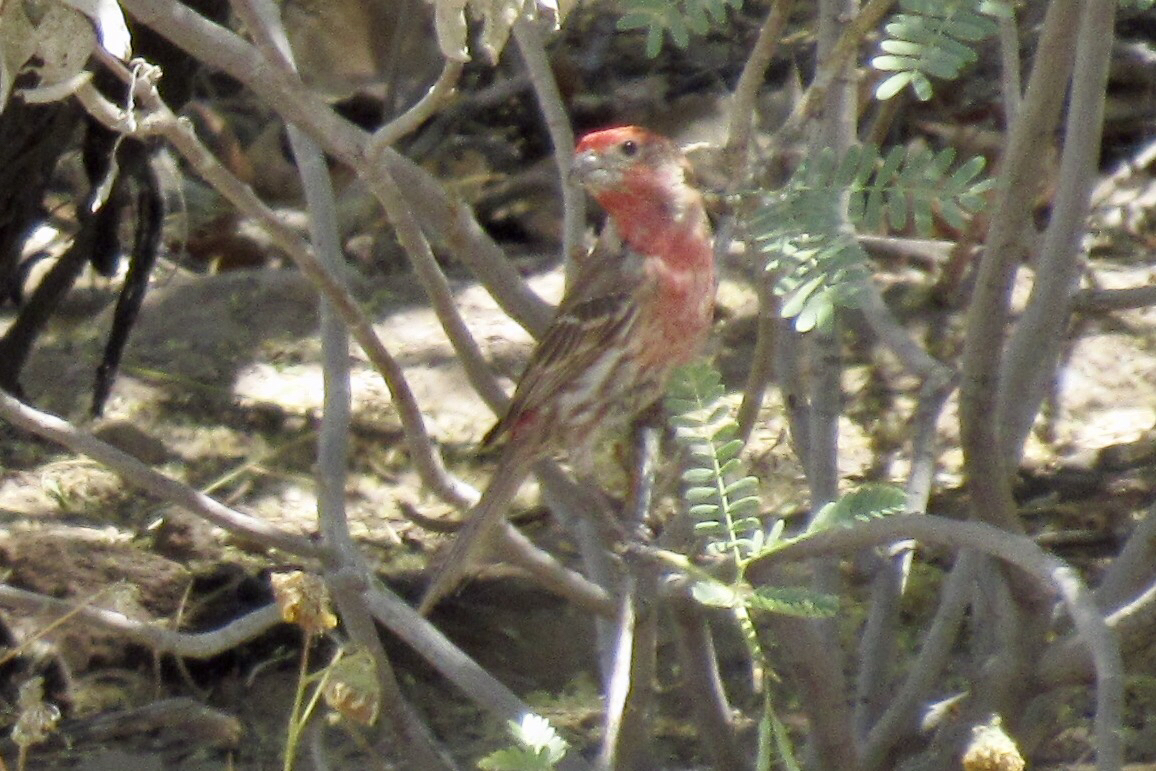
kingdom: Animalia
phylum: Chordata
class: Aves
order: Passeriformes
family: Fringillidae
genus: Haemorhous
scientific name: Haemorhous mexicanus
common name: House finch
